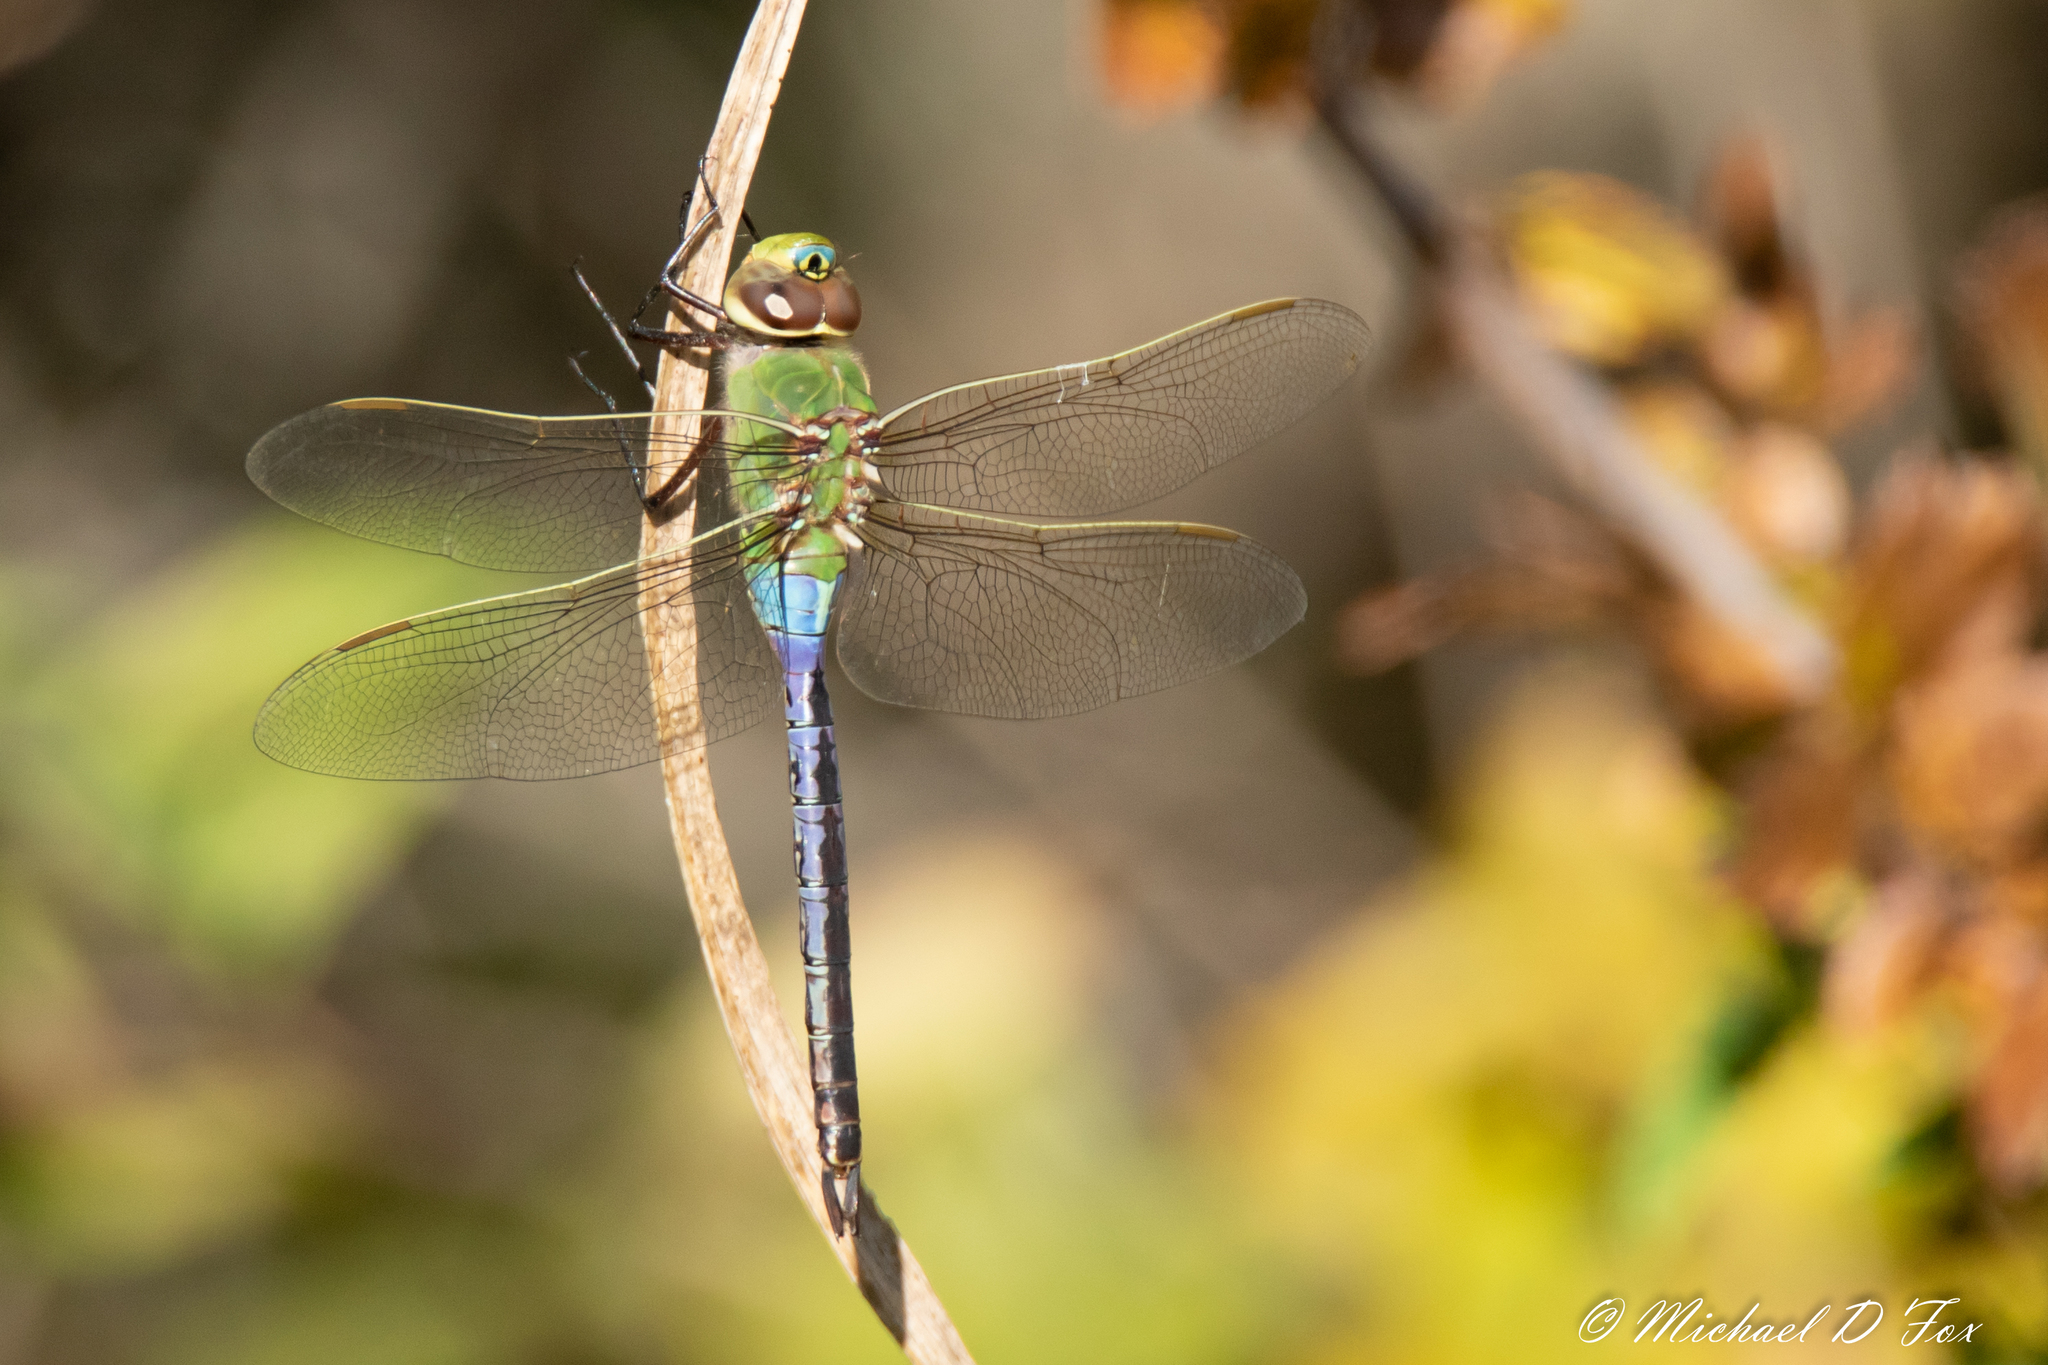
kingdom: Animalia
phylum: Arthropoda
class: Insecta
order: Odonata
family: Aeshnidae
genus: Anax
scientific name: Anax junius
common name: Common green darner
